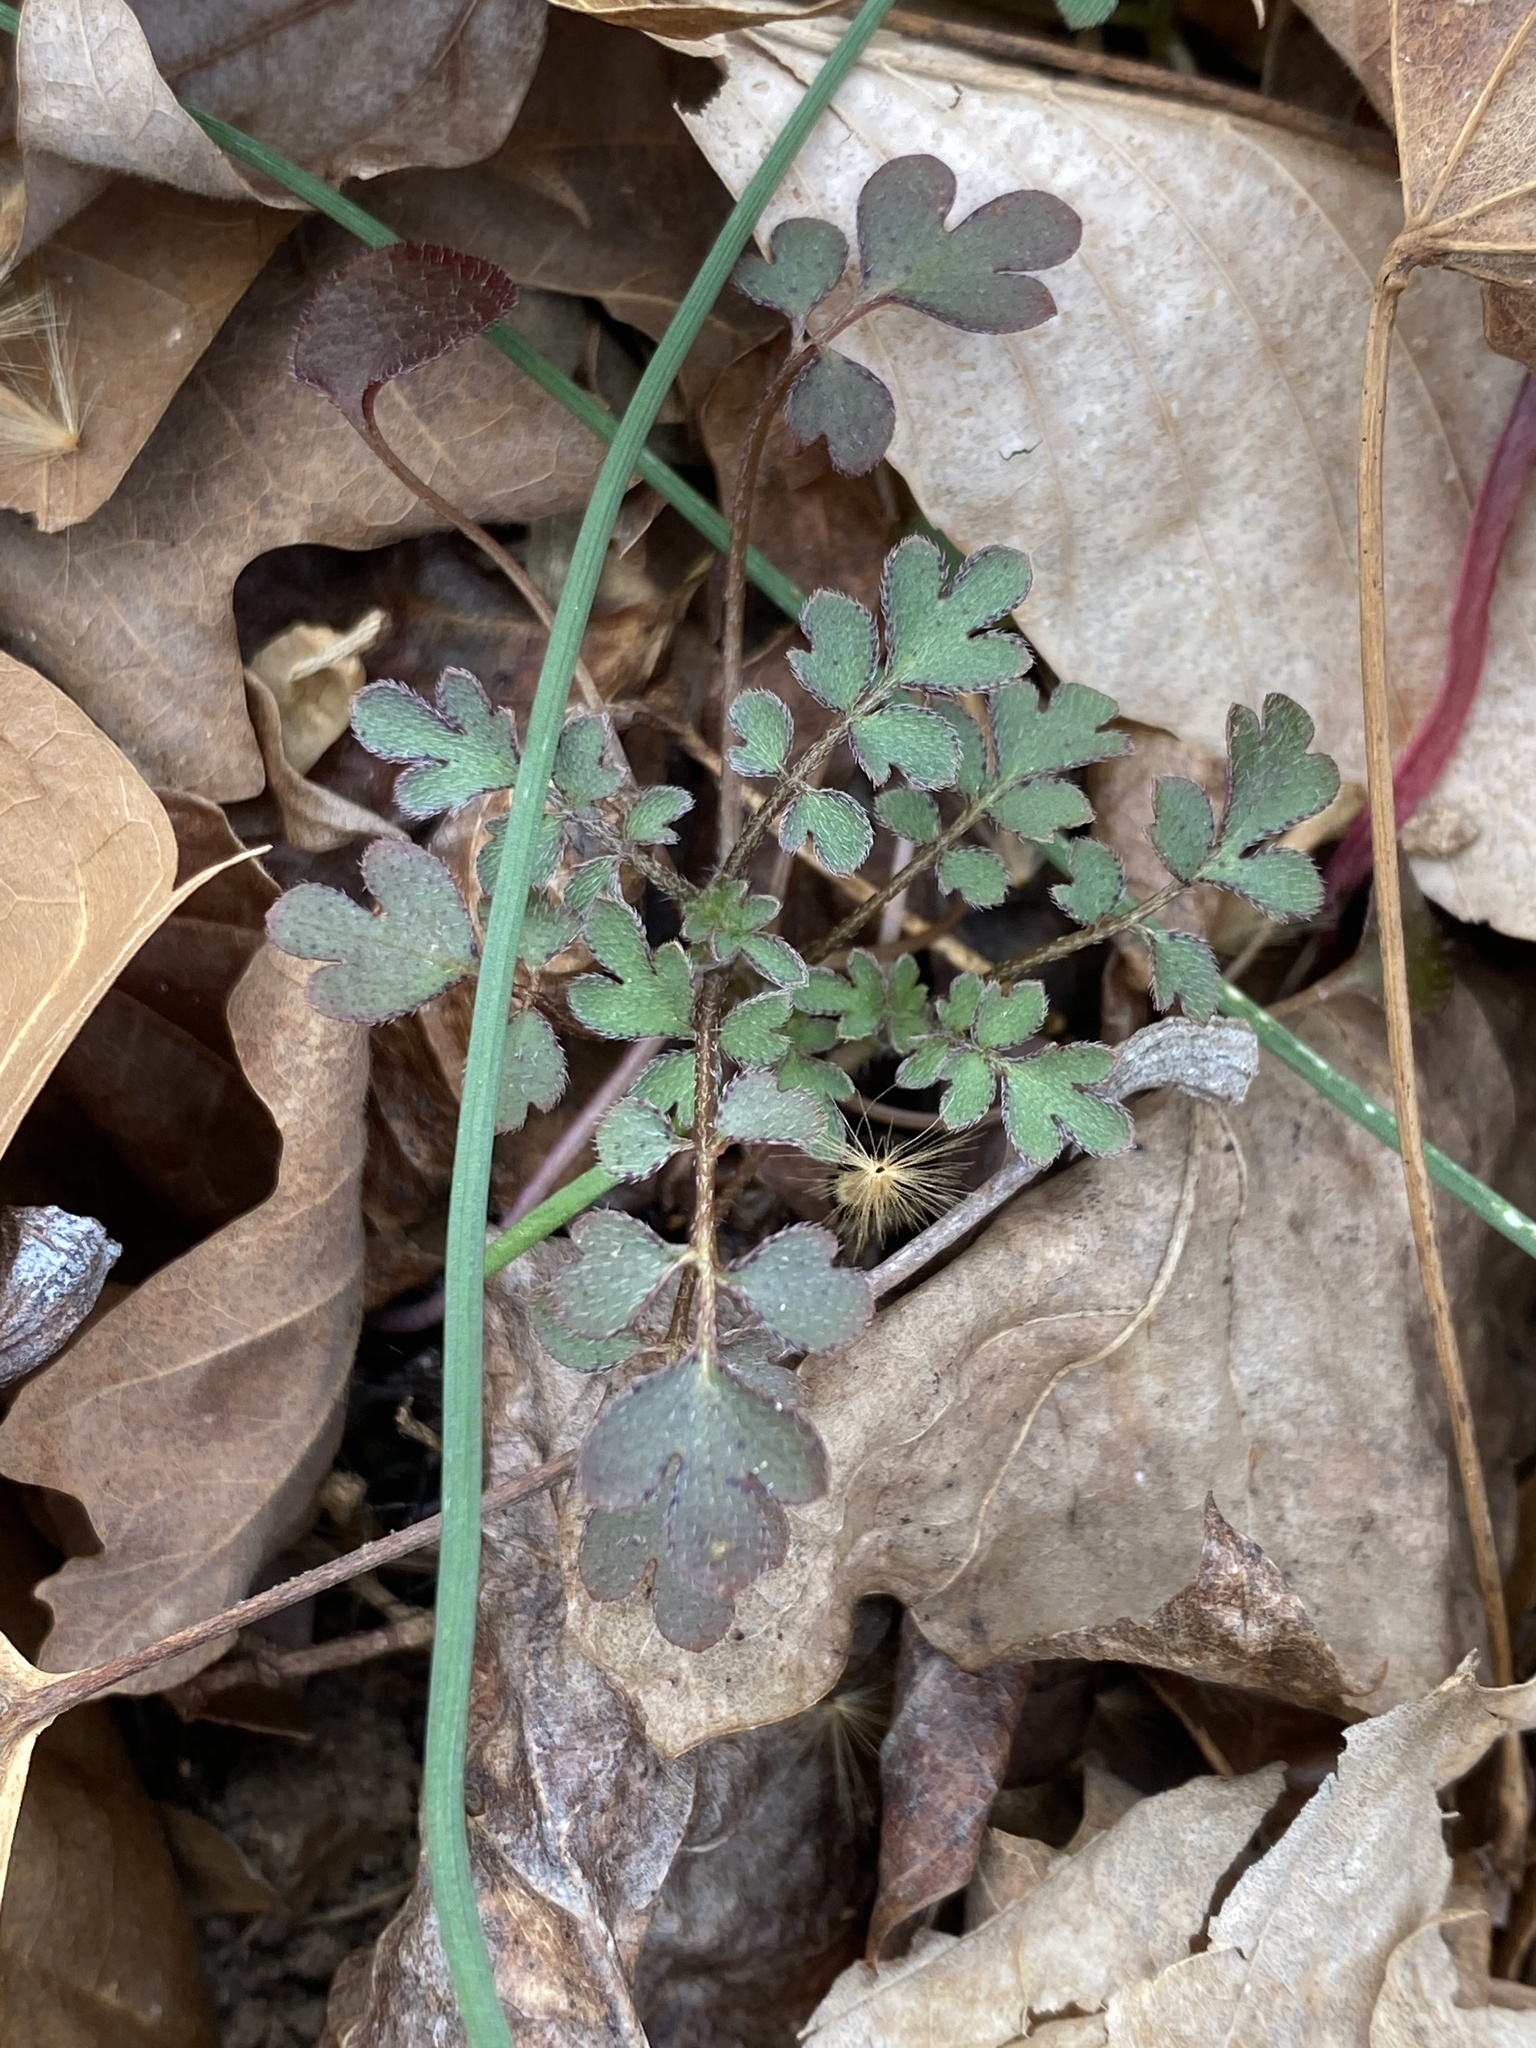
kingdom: Plantae
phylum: Tracheophyta
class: Magnoliopsida
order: Boraginales
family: Hydrophyllaceae
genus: Phacelia
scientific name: Phacelia covillei
